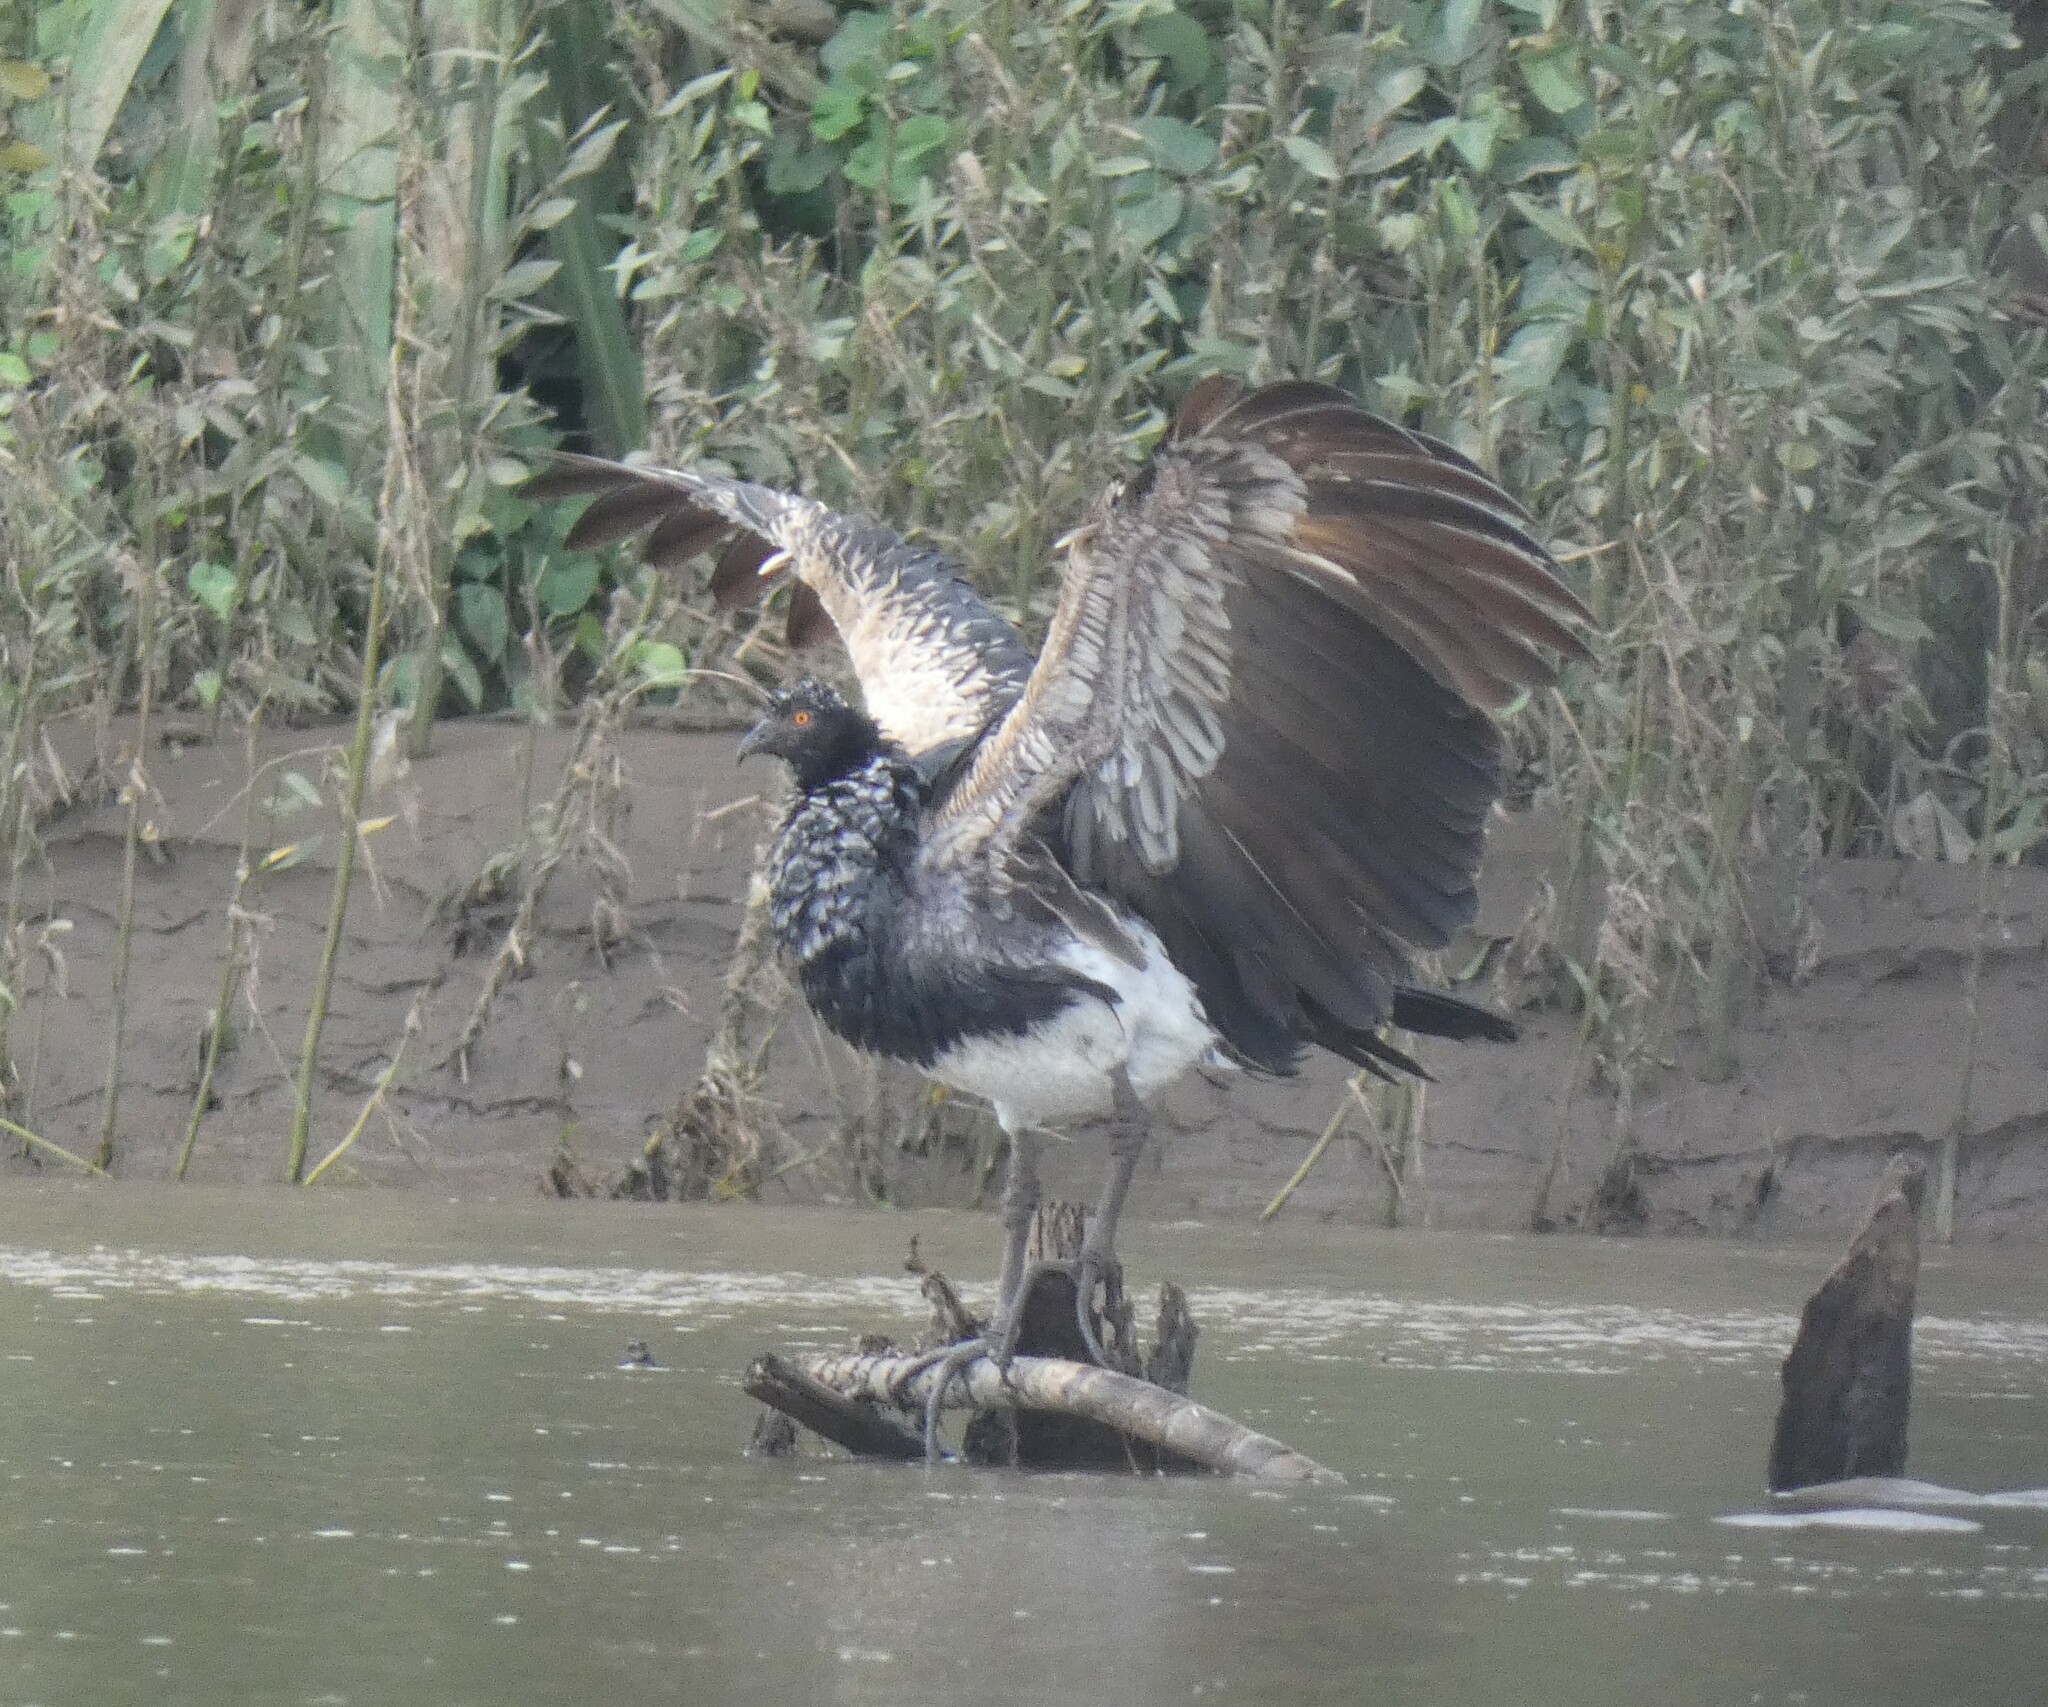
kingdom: Animalia
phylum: Chordata
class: Aves
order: Anseriformes
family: Anhimidae
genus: Anhima
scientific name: Anhima cornuta
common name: Horned screamer
